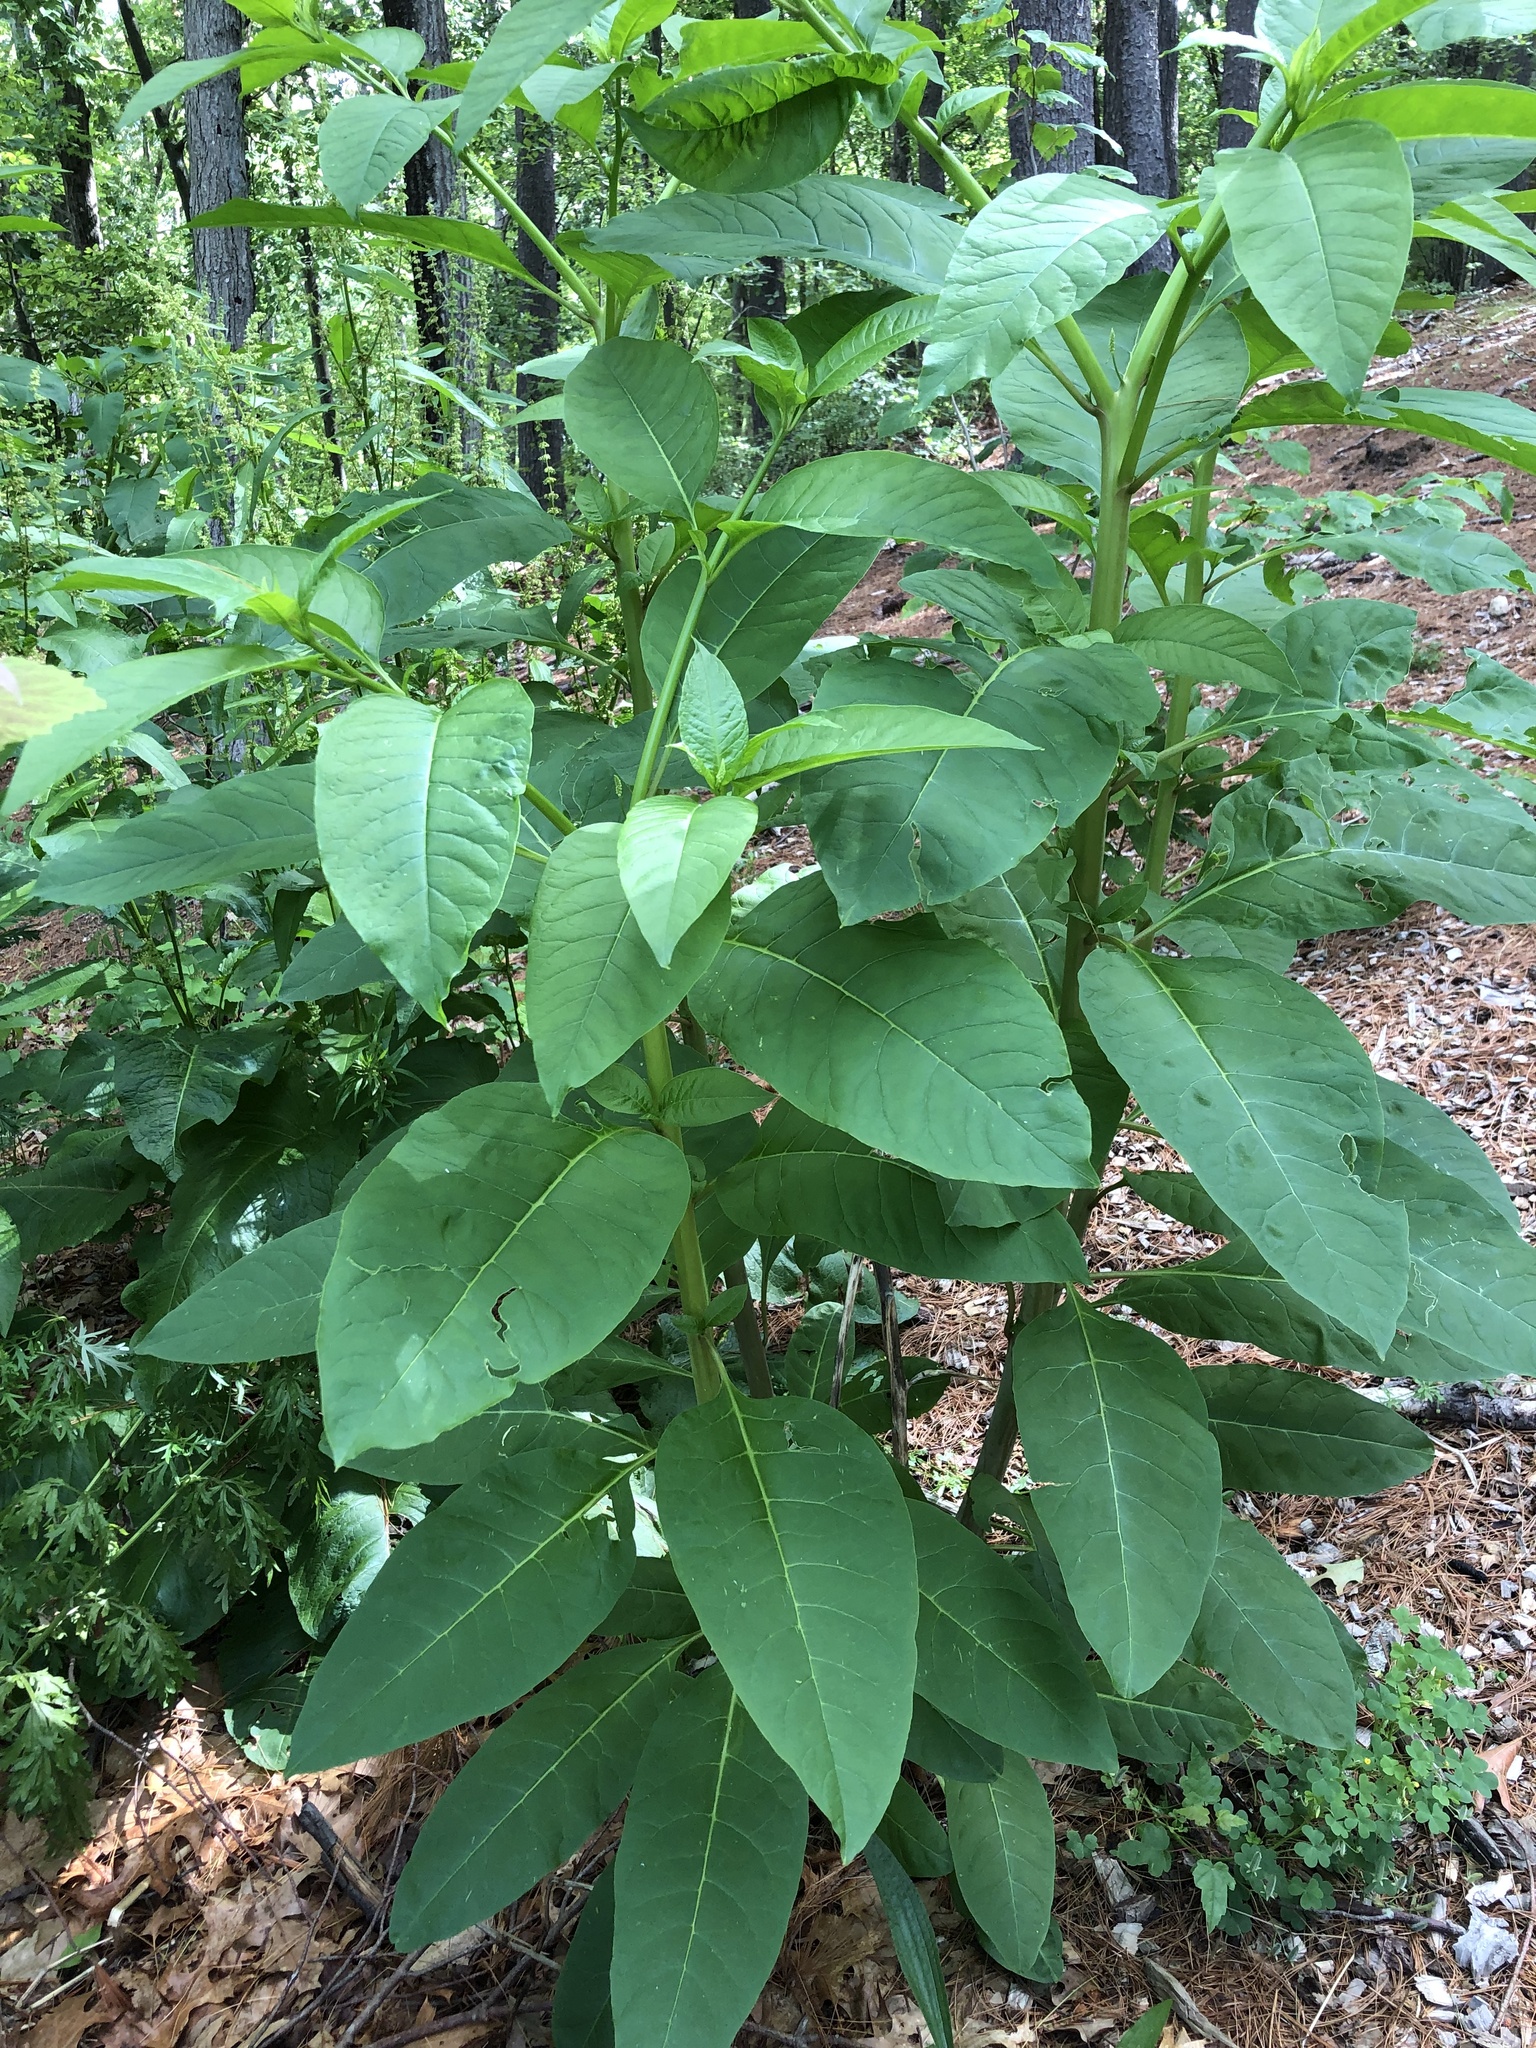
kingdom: Plantae
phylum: Tracheophyta
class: Magnoliopsida
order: Caryophyllales
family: Phytolaccaceae
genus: Phytolacca
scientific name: Phytolacca americana
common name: American pokeweed
